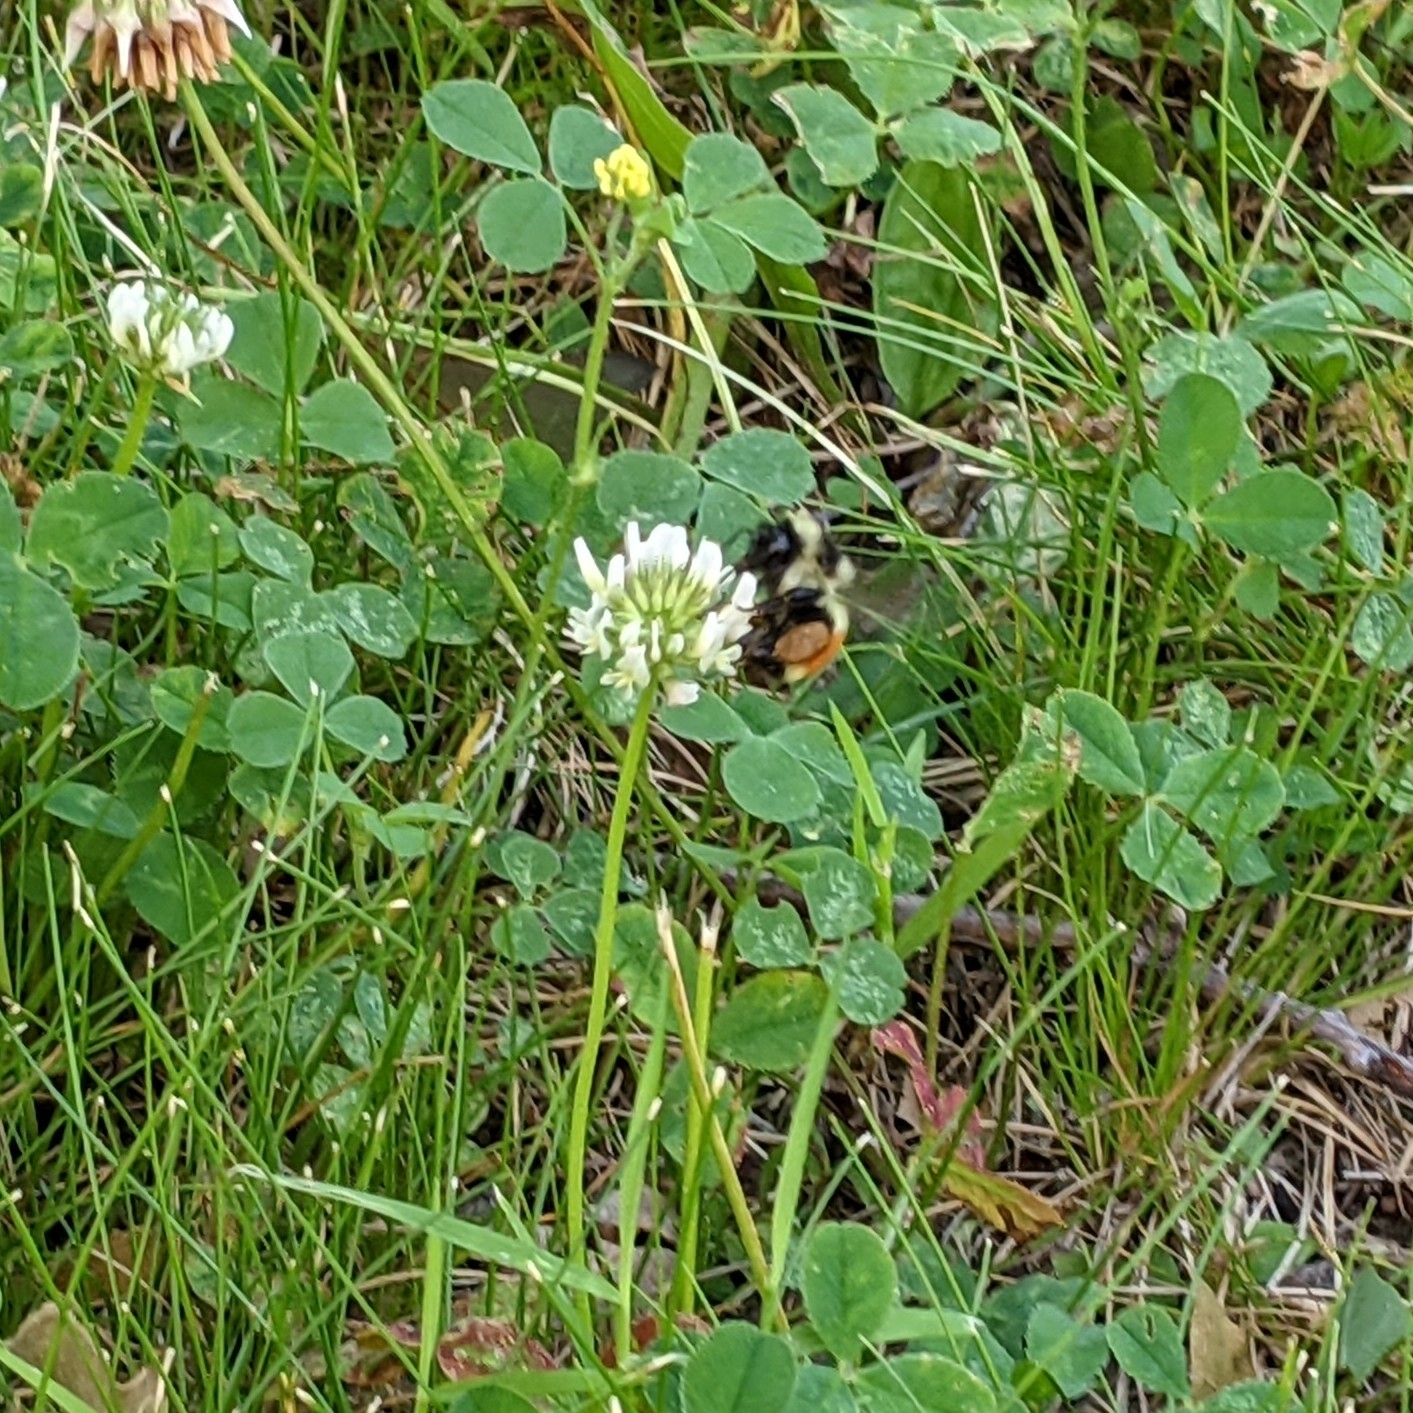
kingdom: Animalia
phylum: Arthropoda
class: Insecta
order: Hymenoptera
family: Apidae
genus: Bombus
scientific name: Bombus ternarius
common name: Tri-colored bumble bee
